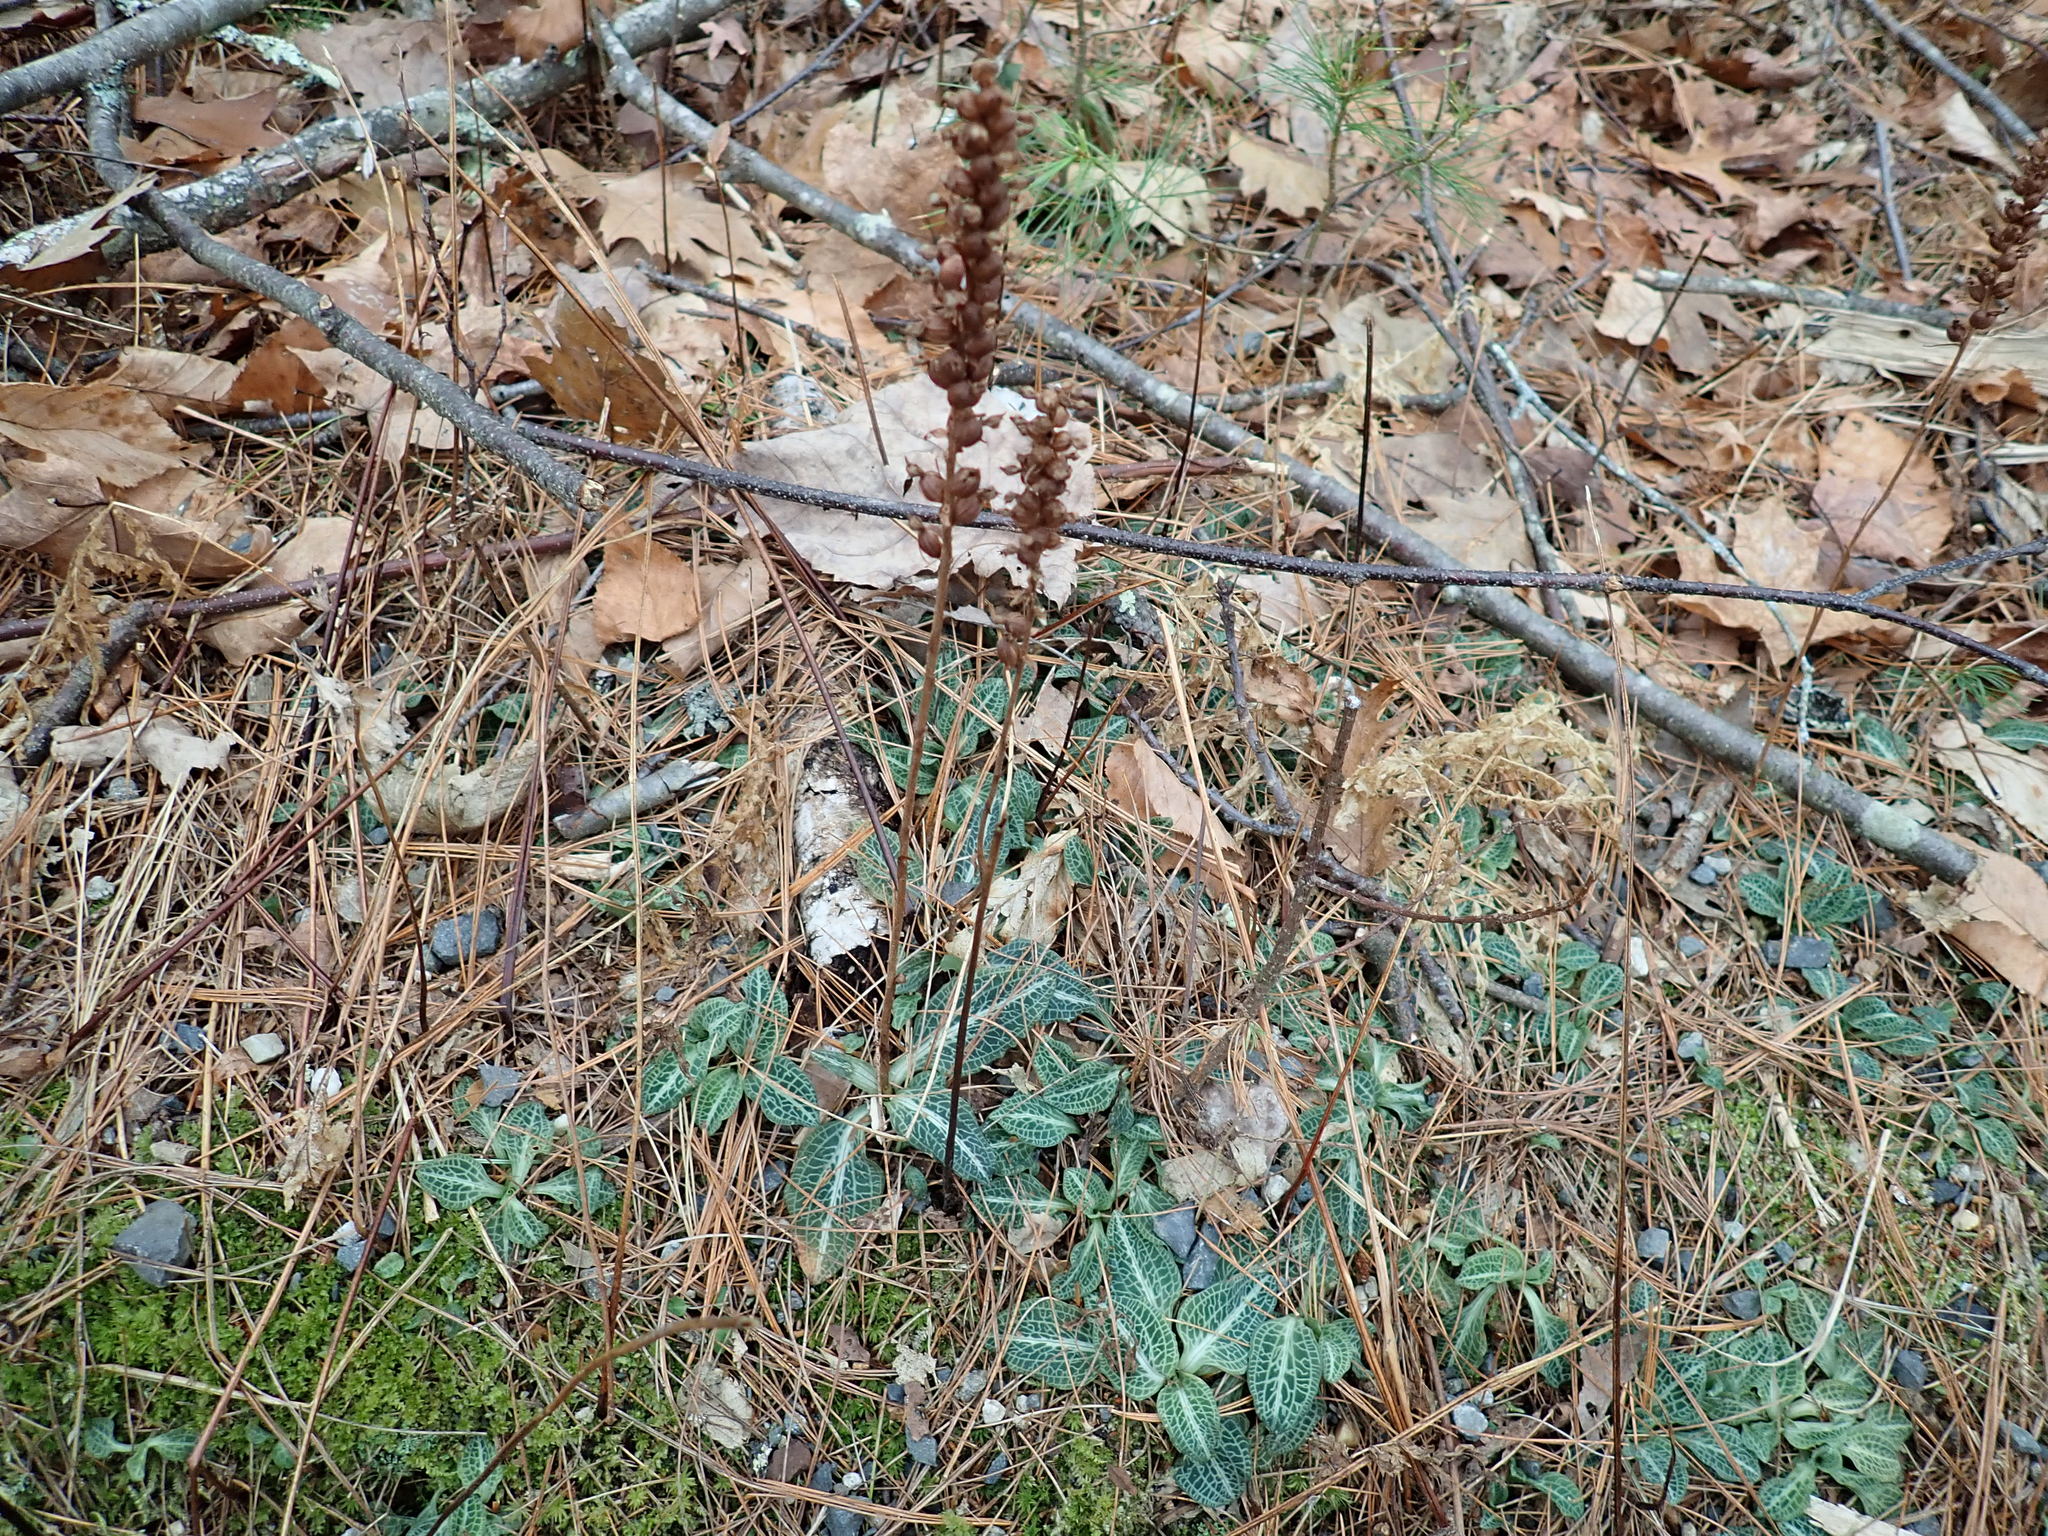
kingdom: Plantae
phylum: Tracheophyta
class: Liliopsida
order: Asparagales
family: Orchidaceae
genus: Goodyera
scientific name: Goodyera pubescens
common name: Downy rattlesnake-plantain
